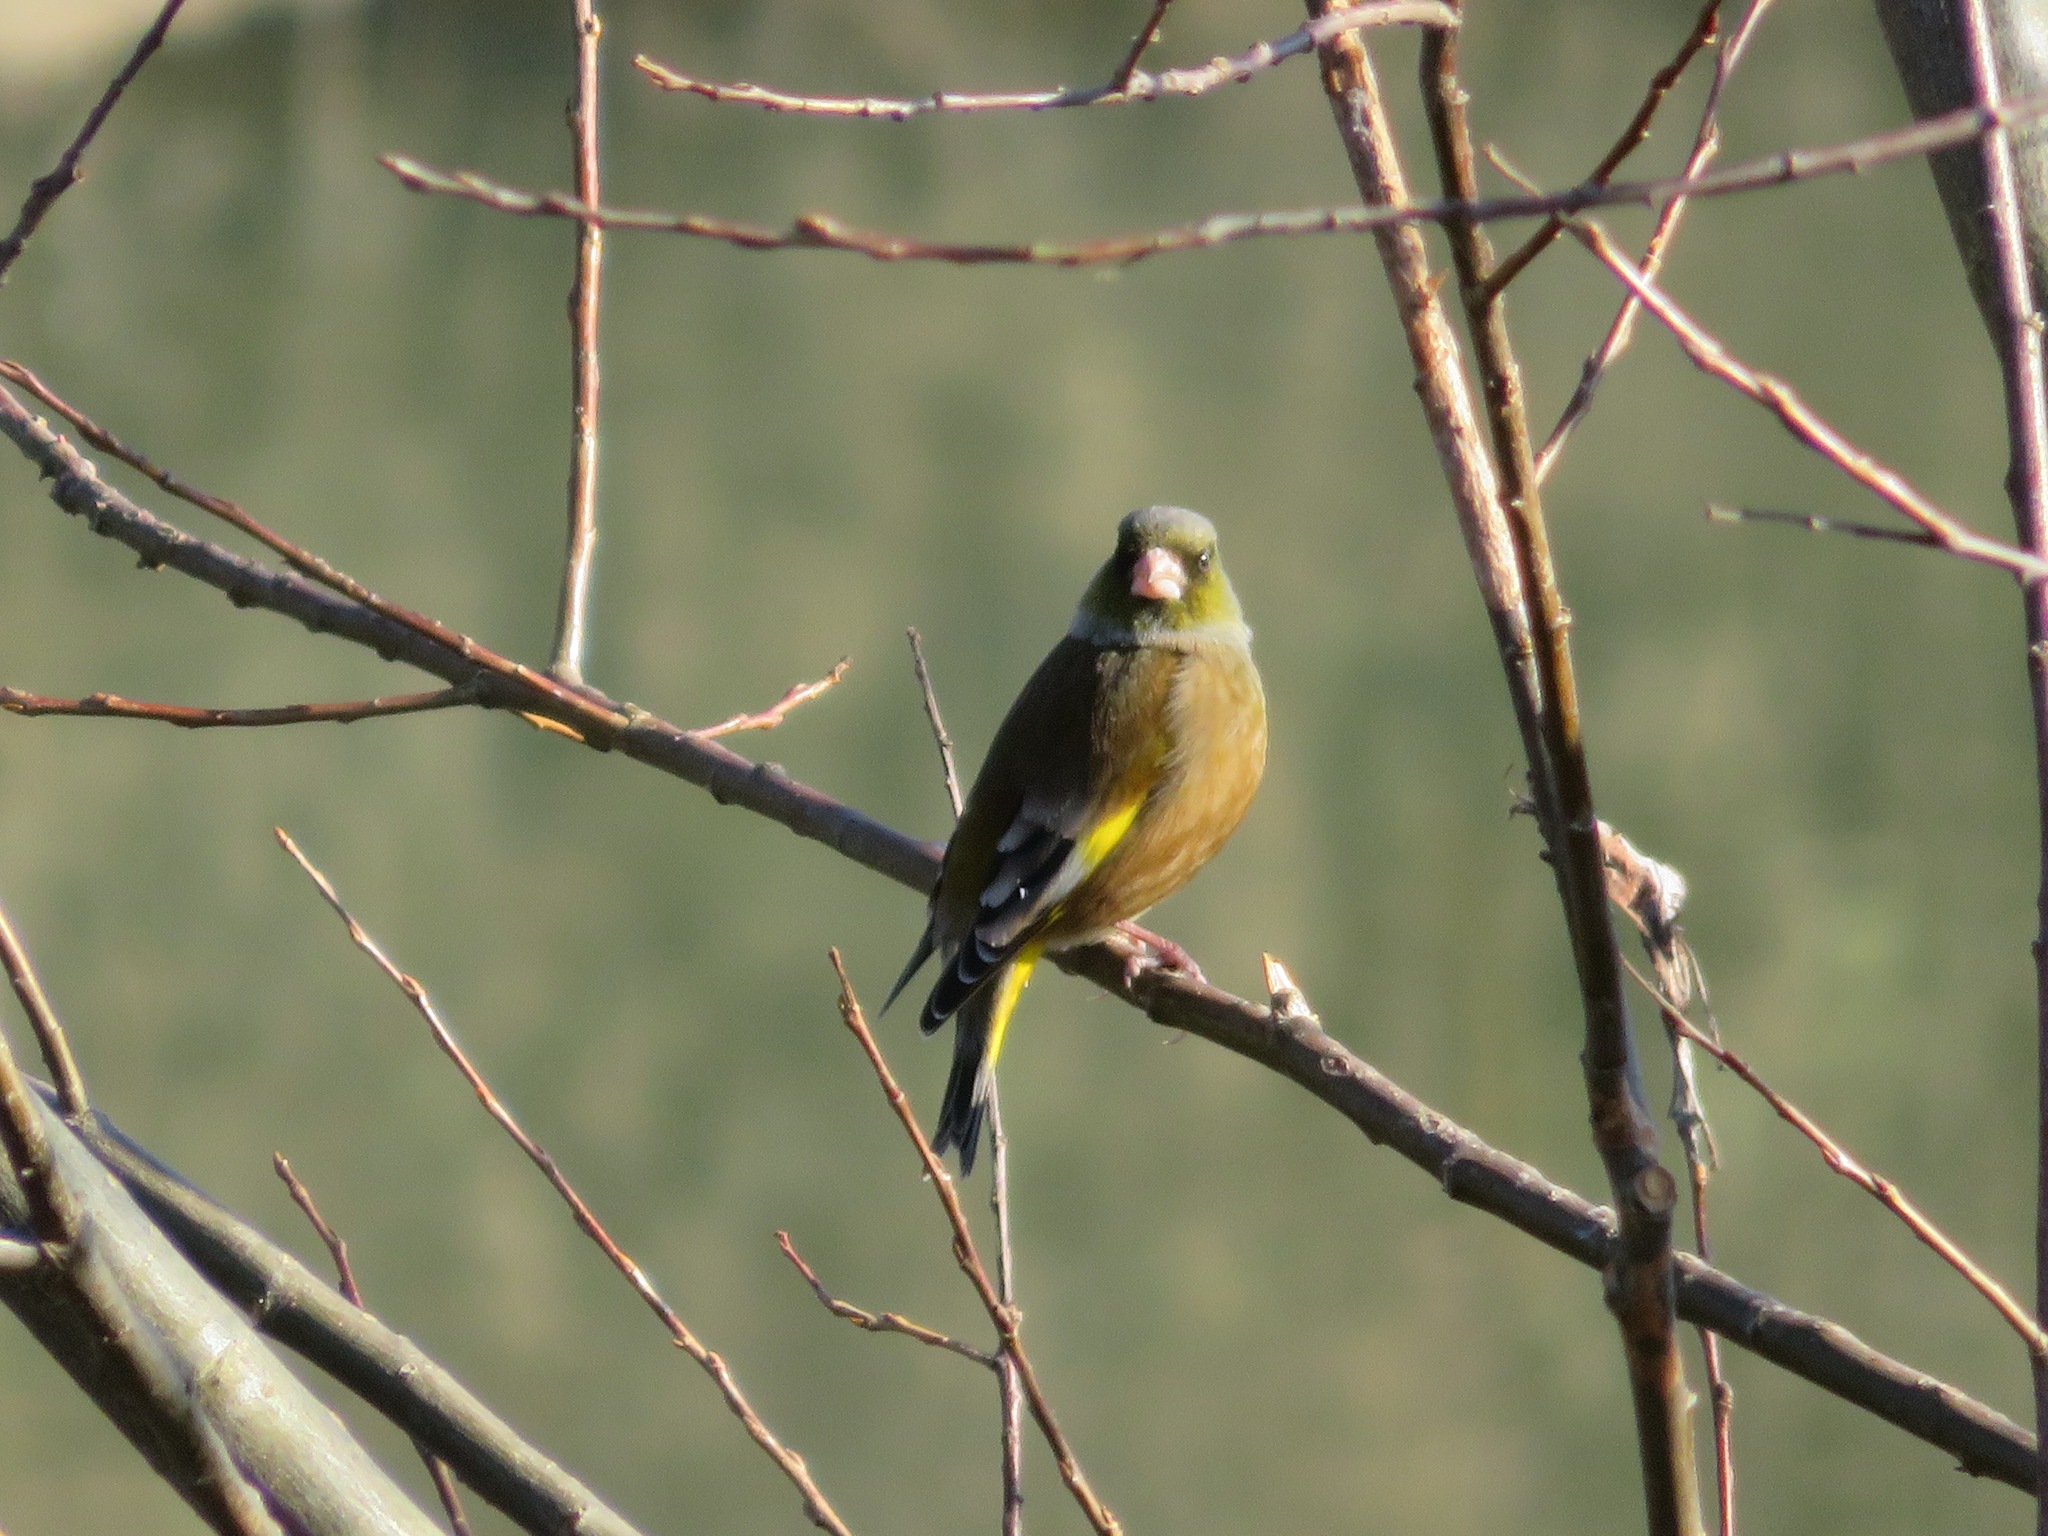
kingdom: Plantae
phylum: Tracheophyta
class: Liliopsida
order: Poales
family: Poaceae
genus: Chloris
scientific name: Chloris sinica
